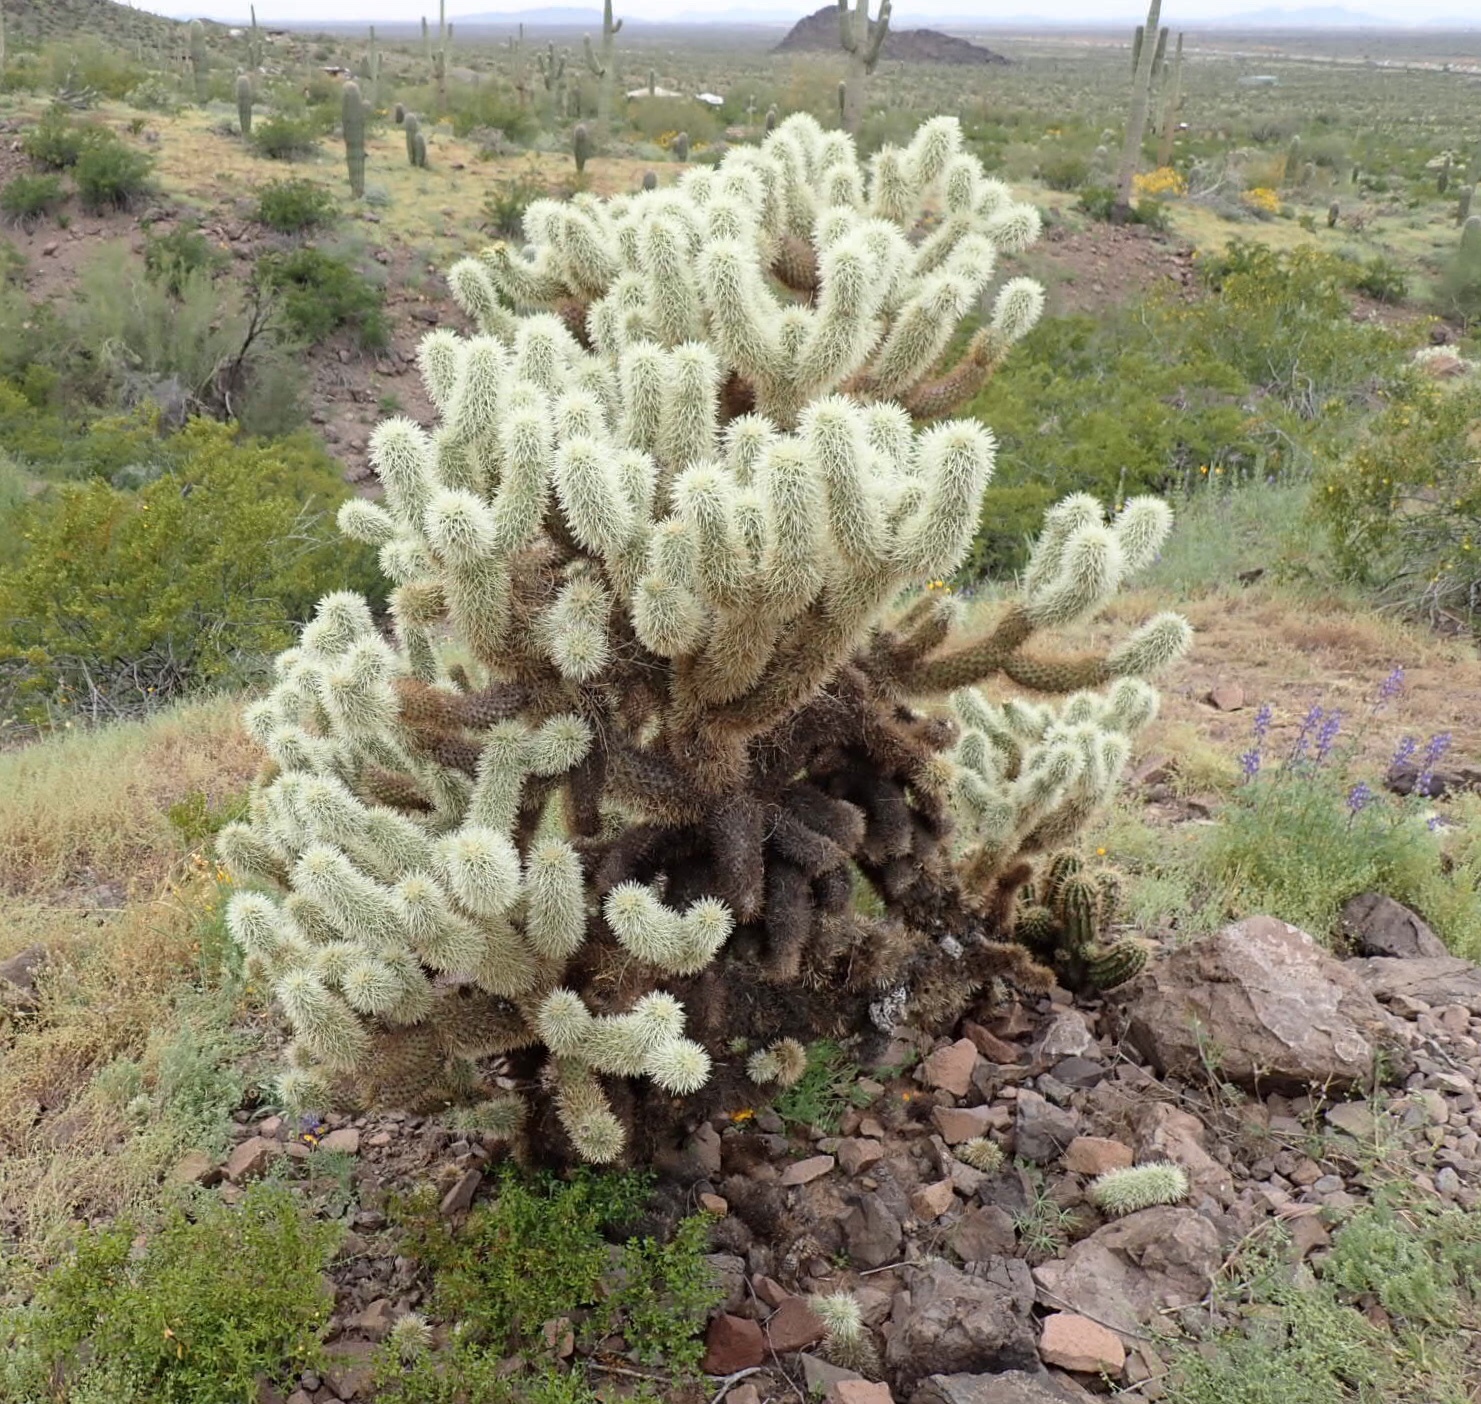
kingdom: Plantae
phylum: Tracheophyta
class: Magnoliopsida
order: Caryophyllales
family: Cactaceae
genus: Cylindropuntia
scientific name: Cylindropuntia fosbergii
